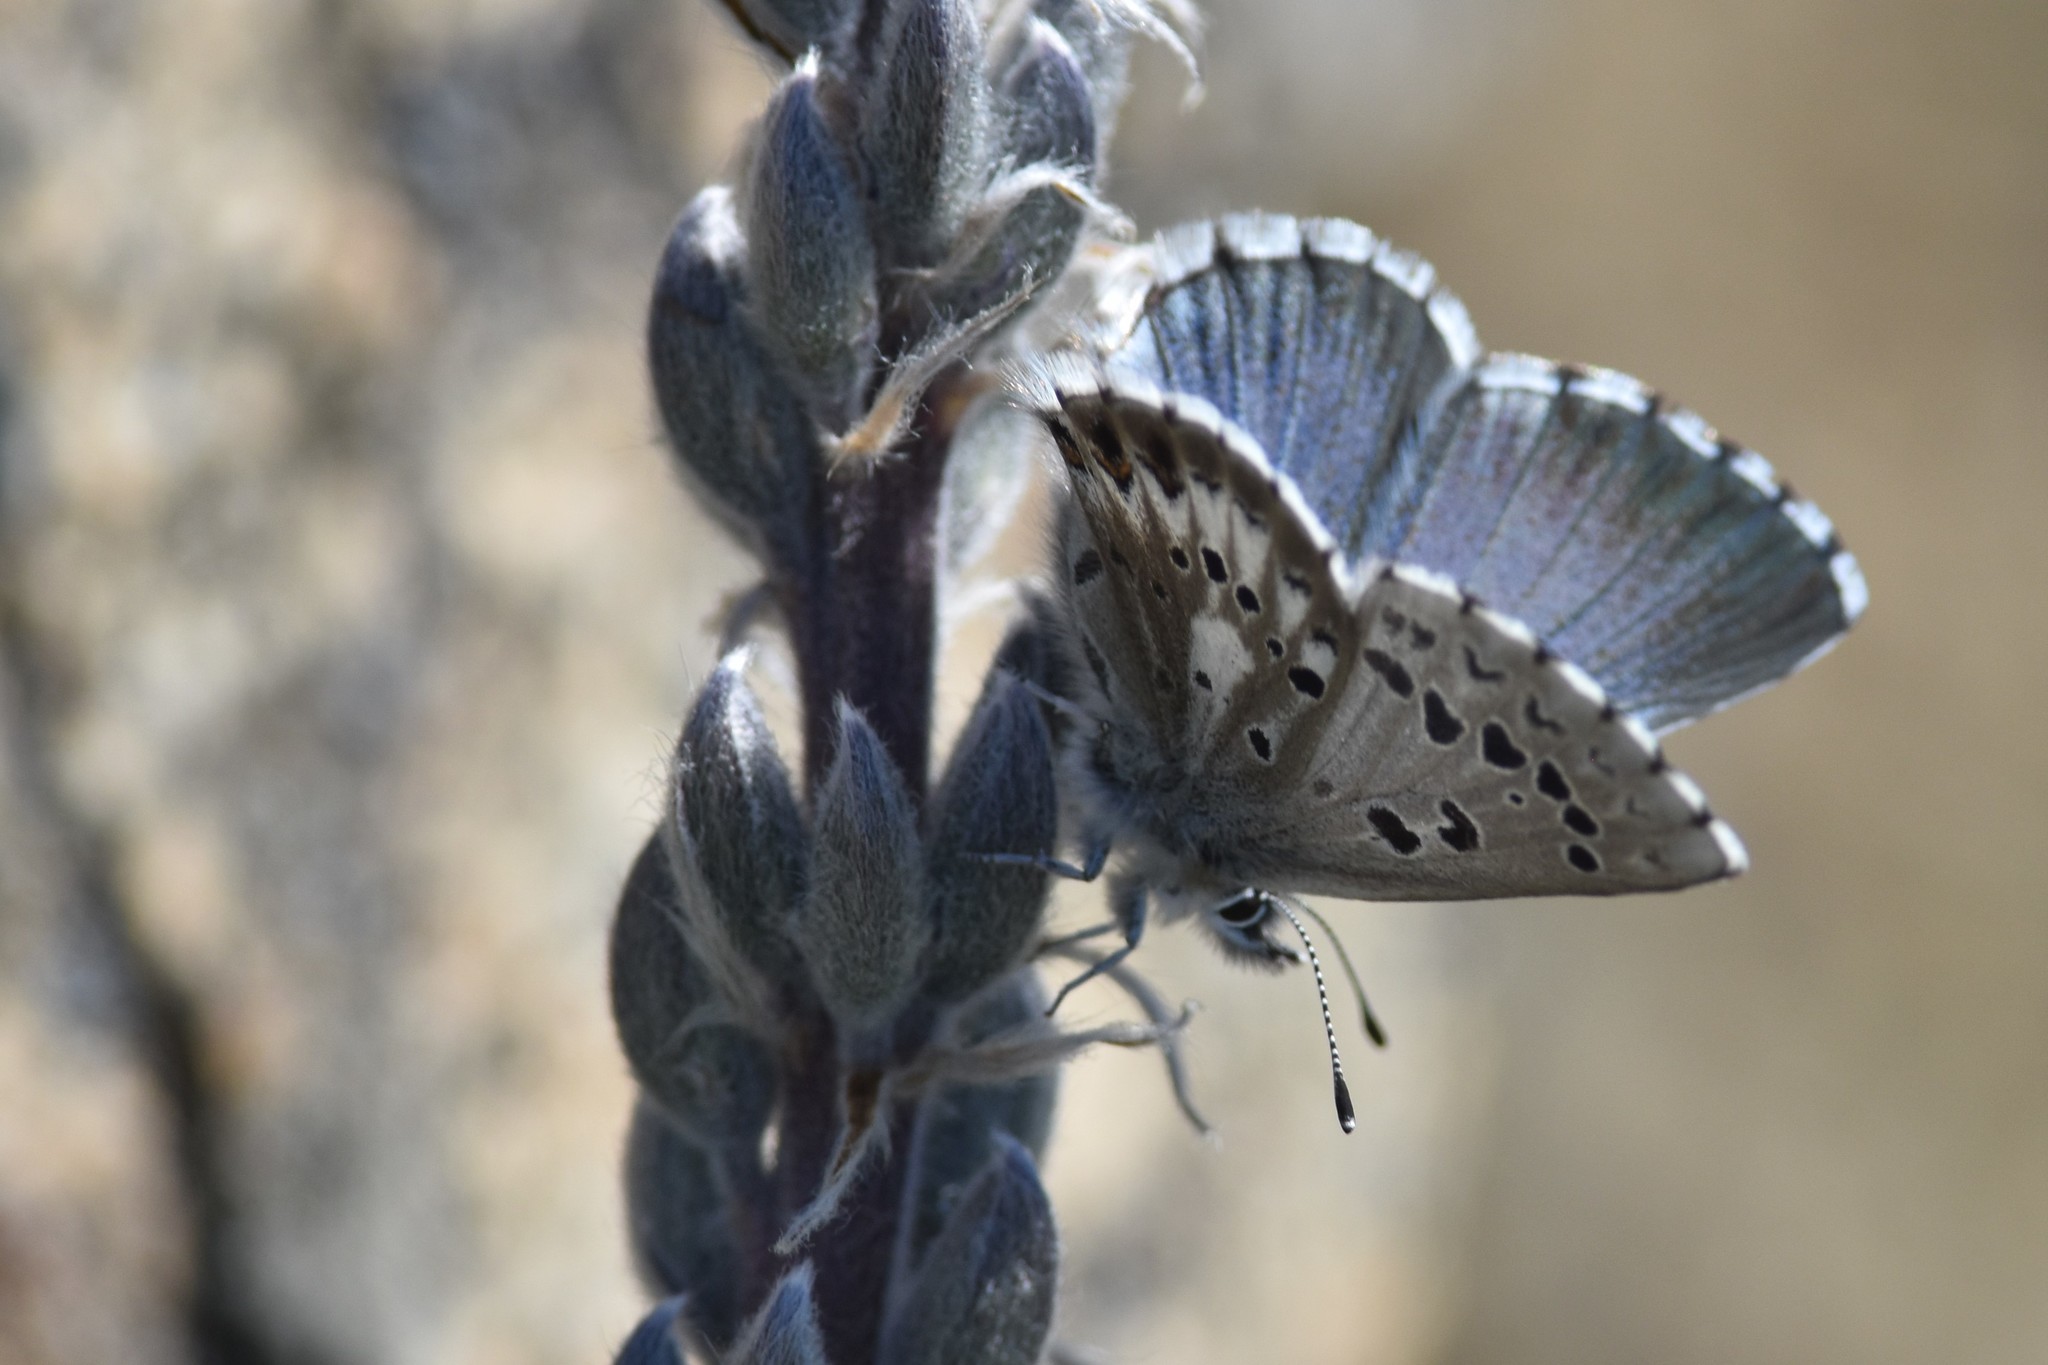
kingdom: Animalia
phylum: Arthropoda
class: Insecta
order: Lepidoptera
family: Lycaenidae
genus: Glaucopsyche
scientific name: Glaucopsyche piasus
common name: Arrowhead blue
